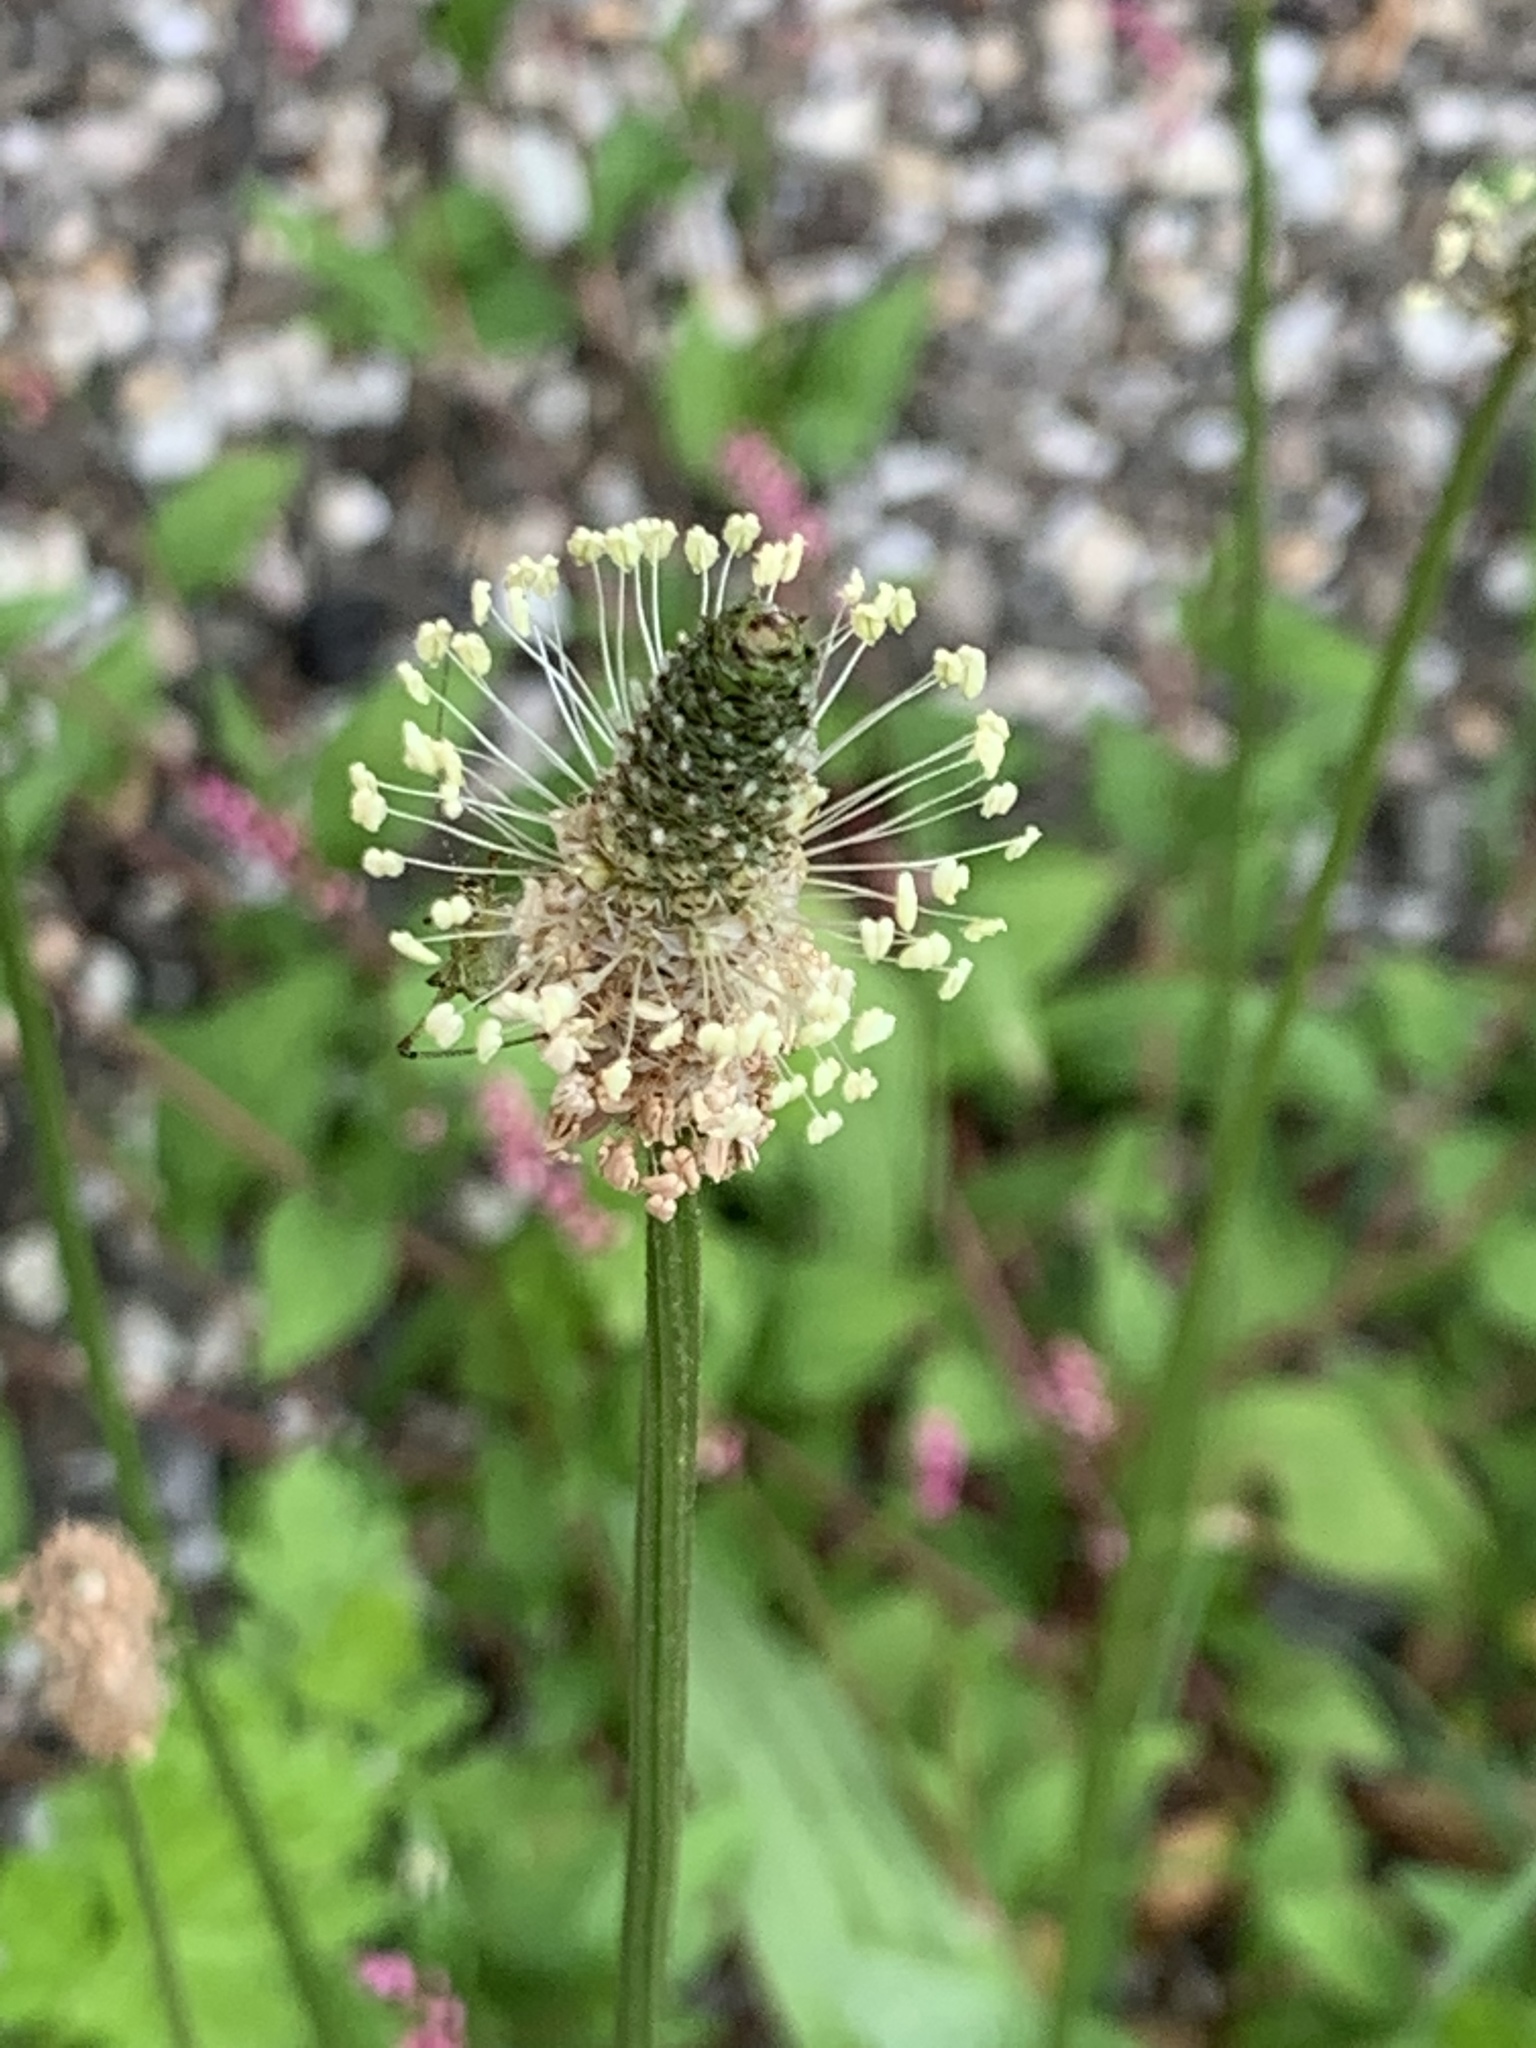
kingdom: Plantae
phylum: Tracheophyta
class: Magnoliopsida
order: Lamiales
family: Plantaginaceae
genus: Plantago
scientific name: Plantago lanceolata
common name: Ribwort plantain
